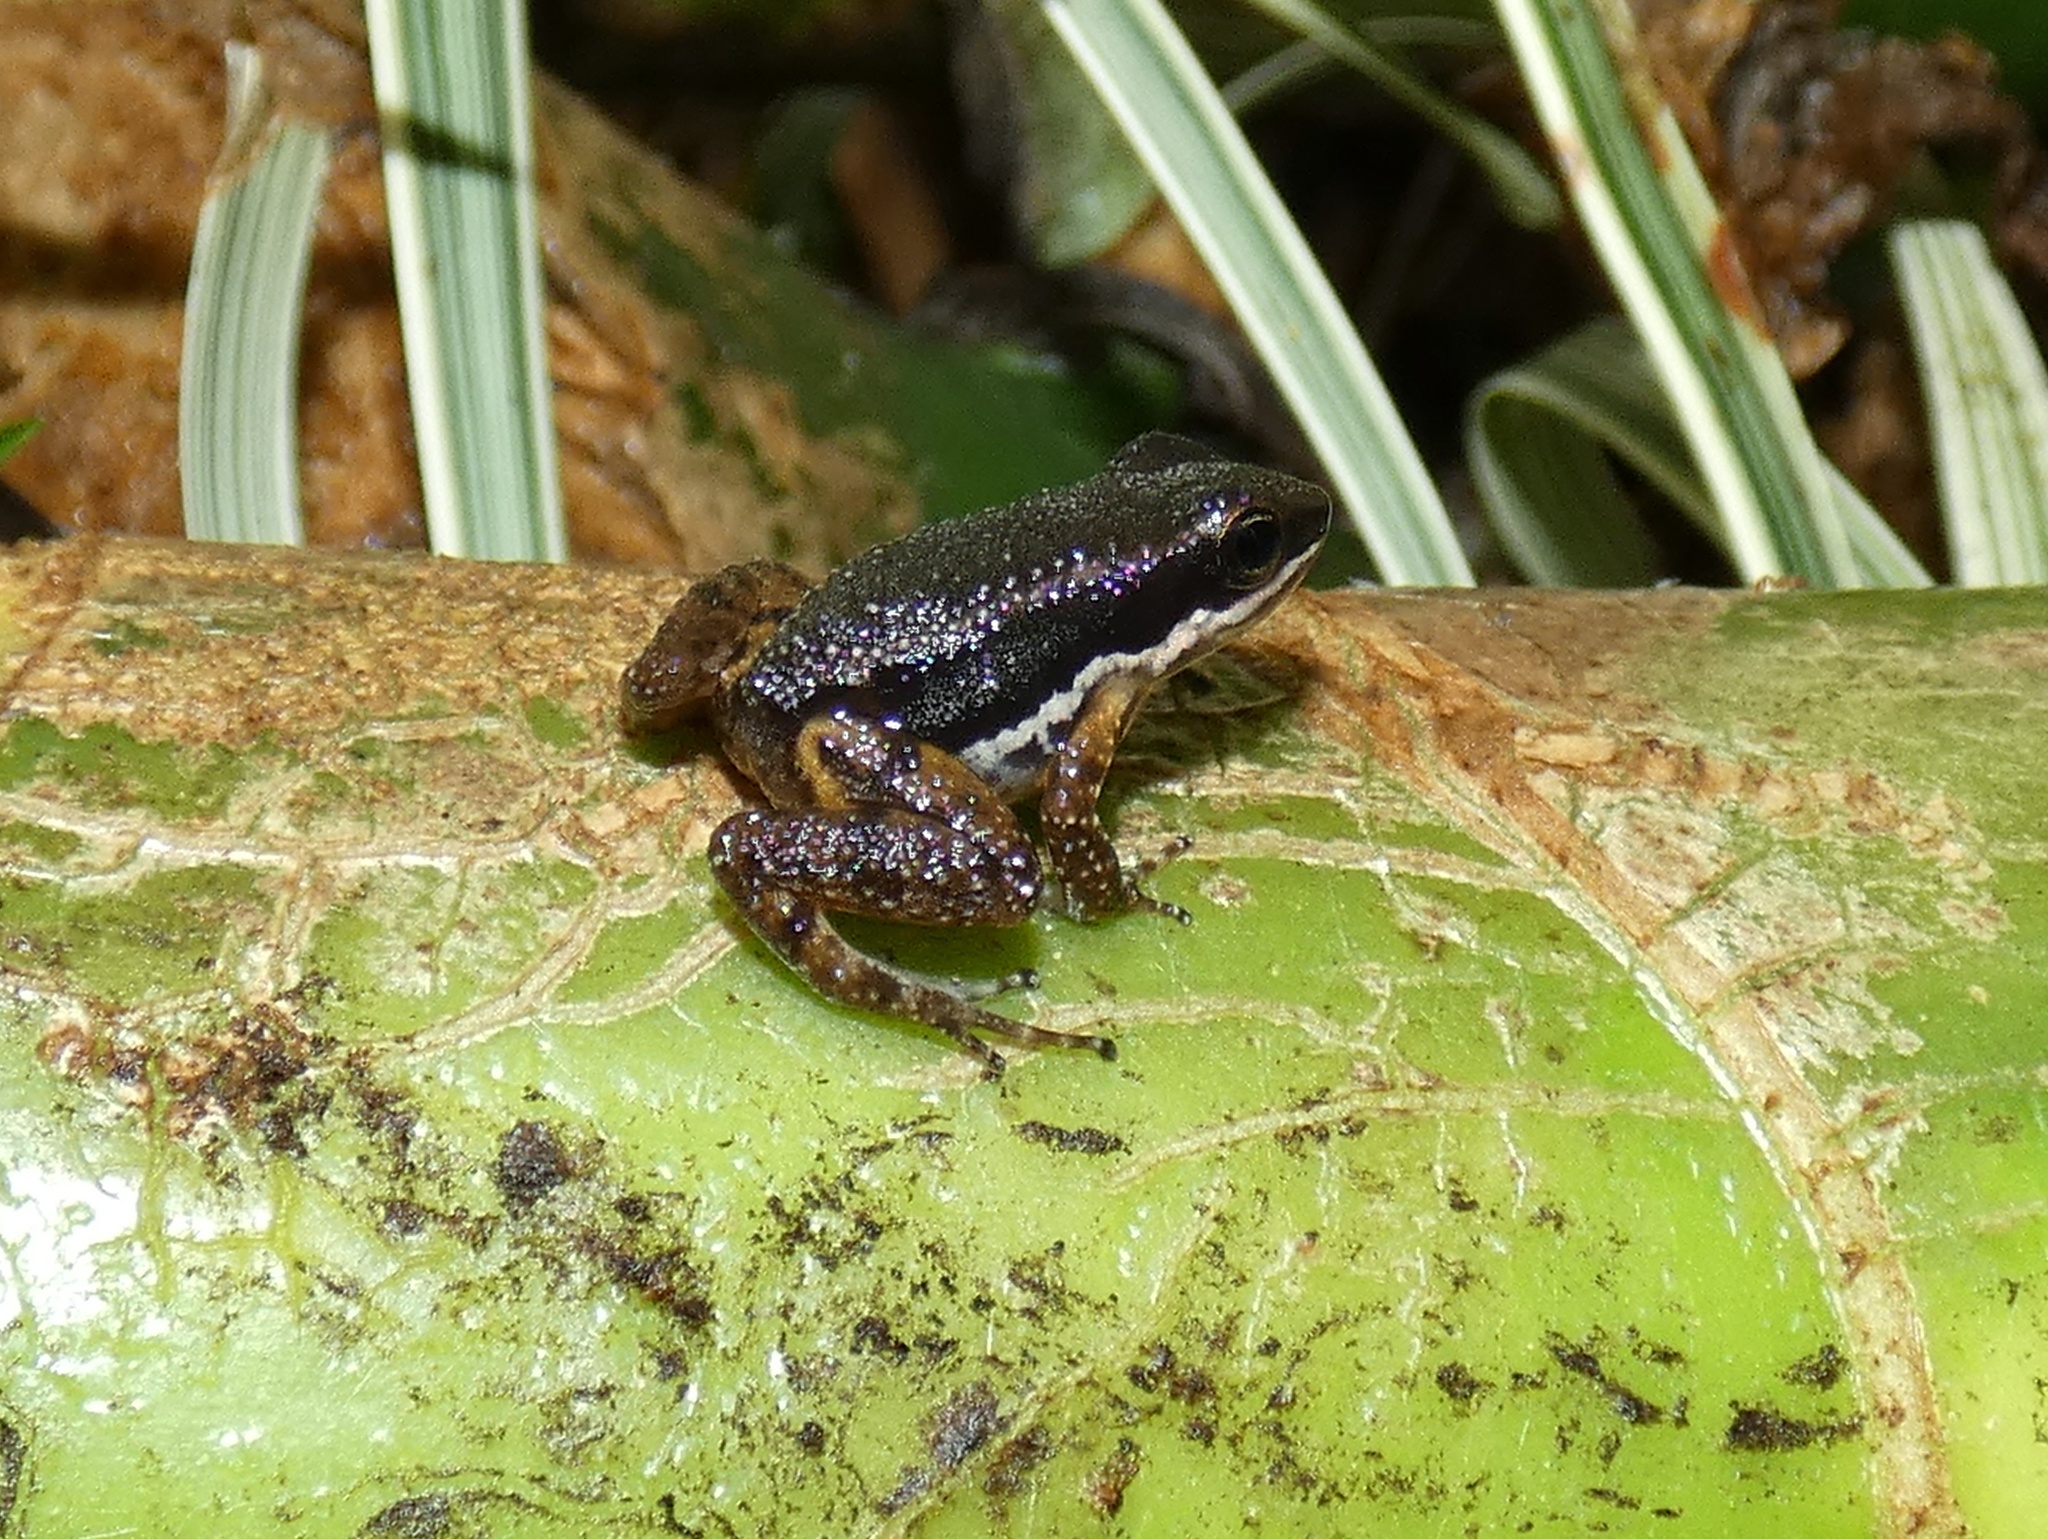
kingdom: Animalia
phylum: Chordata
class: Amphibia
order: Anura
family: Dendrobatidae
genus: Colostethus
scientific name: Colostethus pratti
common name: Pratt's rocket frog
